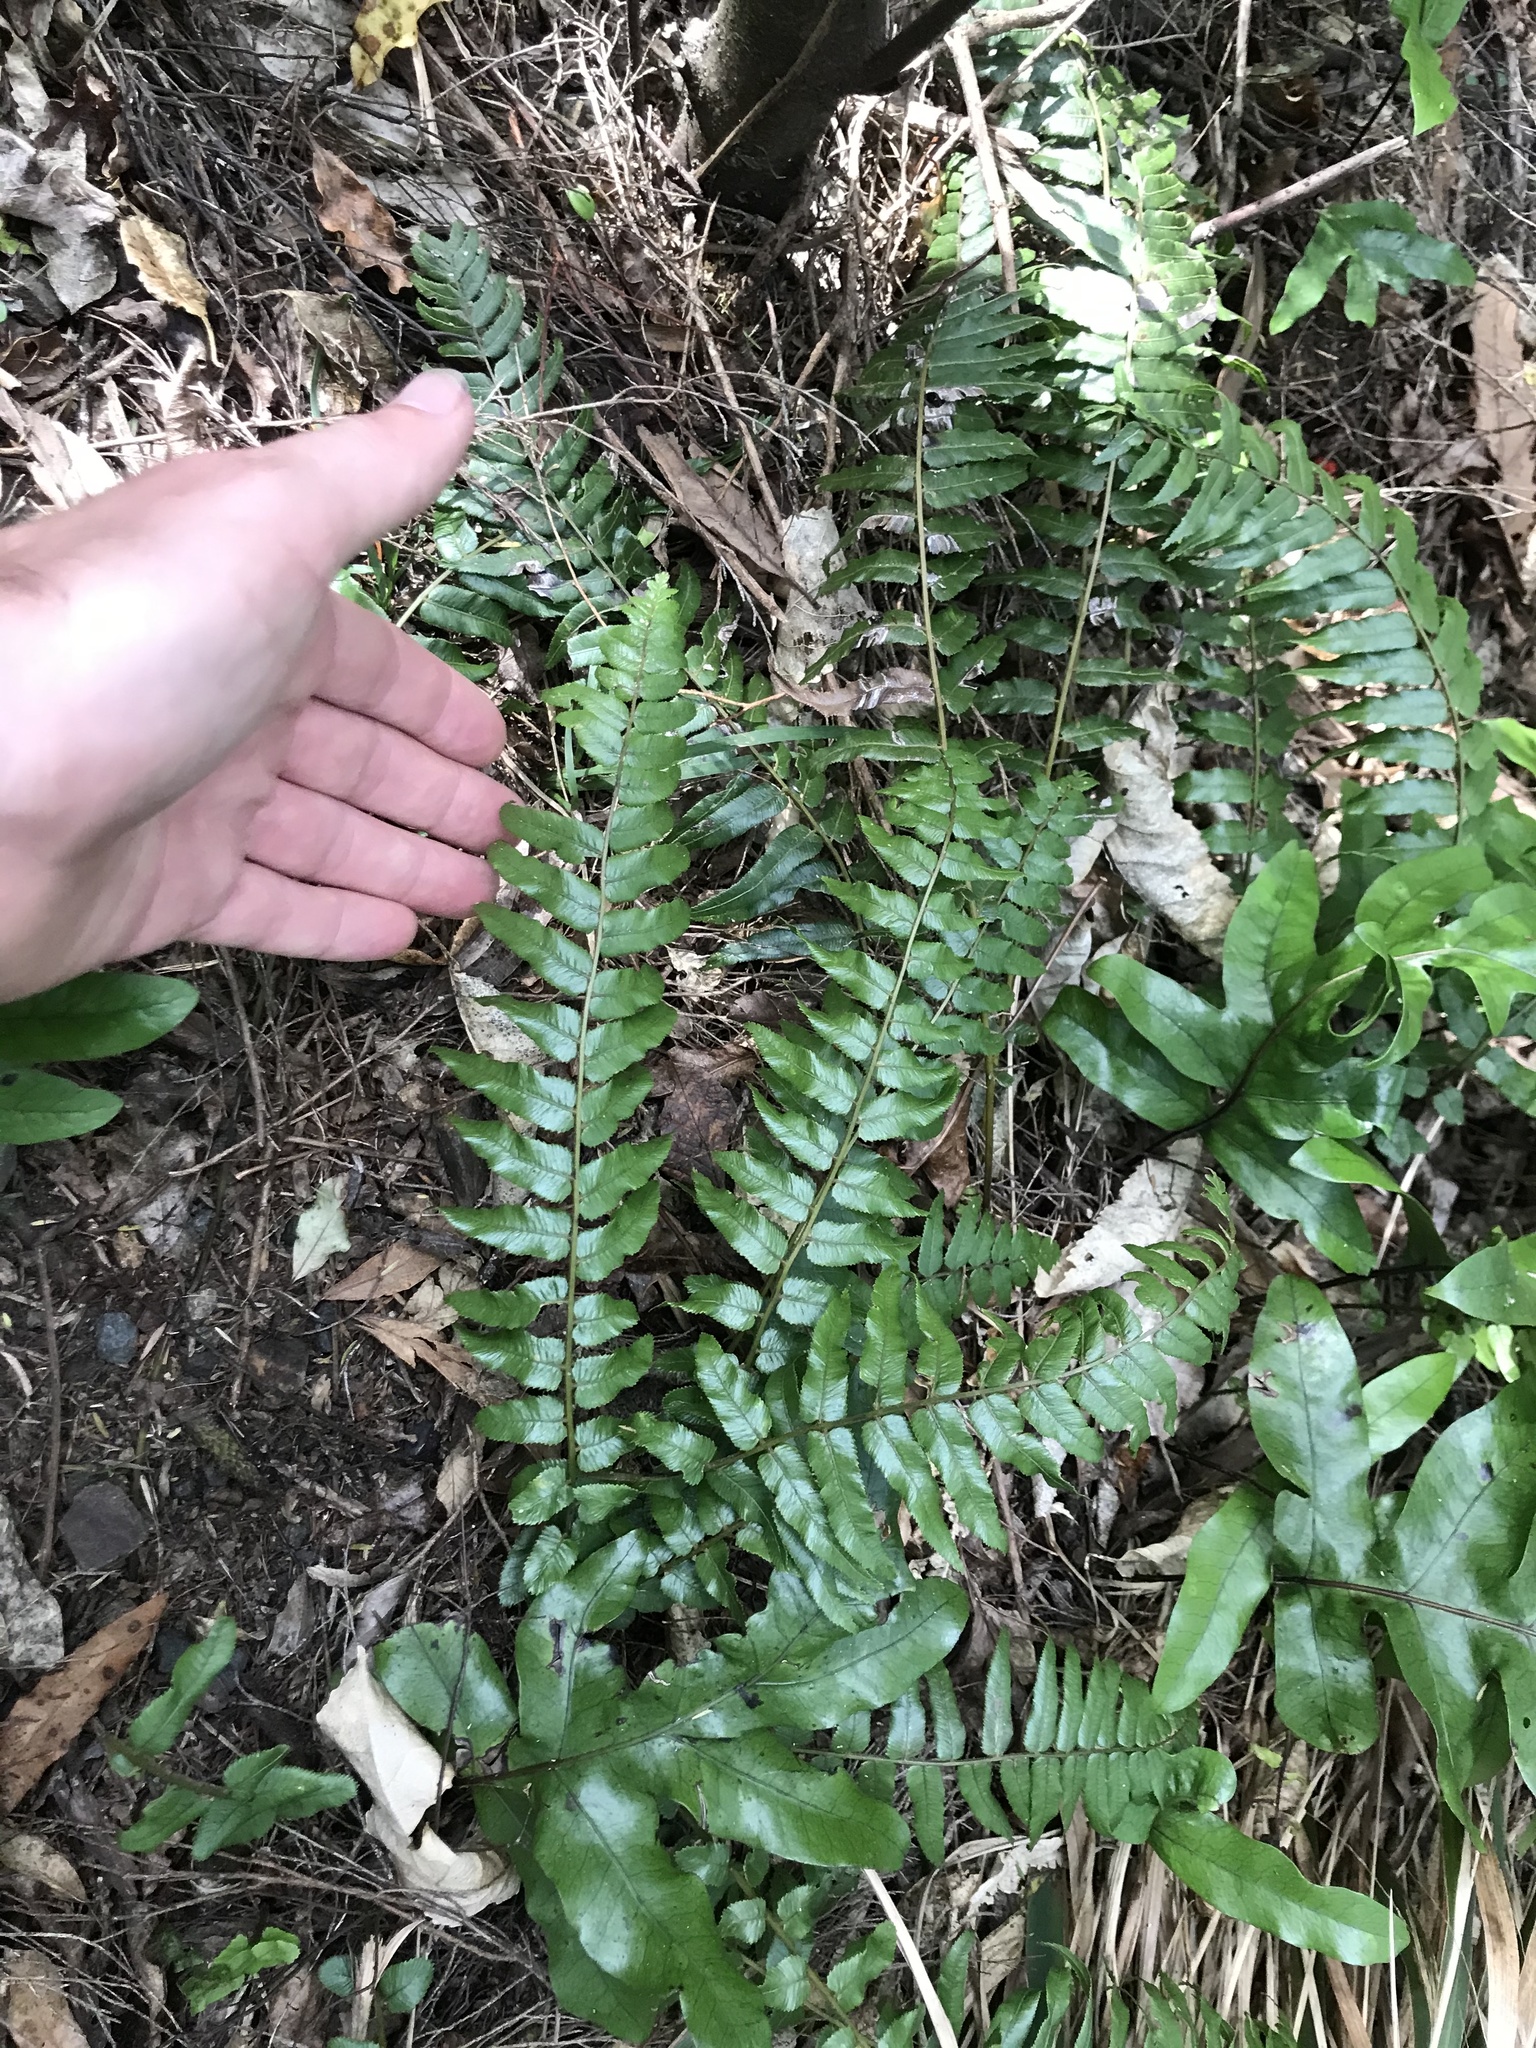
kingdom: Plantae
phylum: Tracheophyta
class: Polypodiopsida
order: Polypodiales
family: Blechnaceae
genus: Icarus
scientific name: Icarus filiformis
